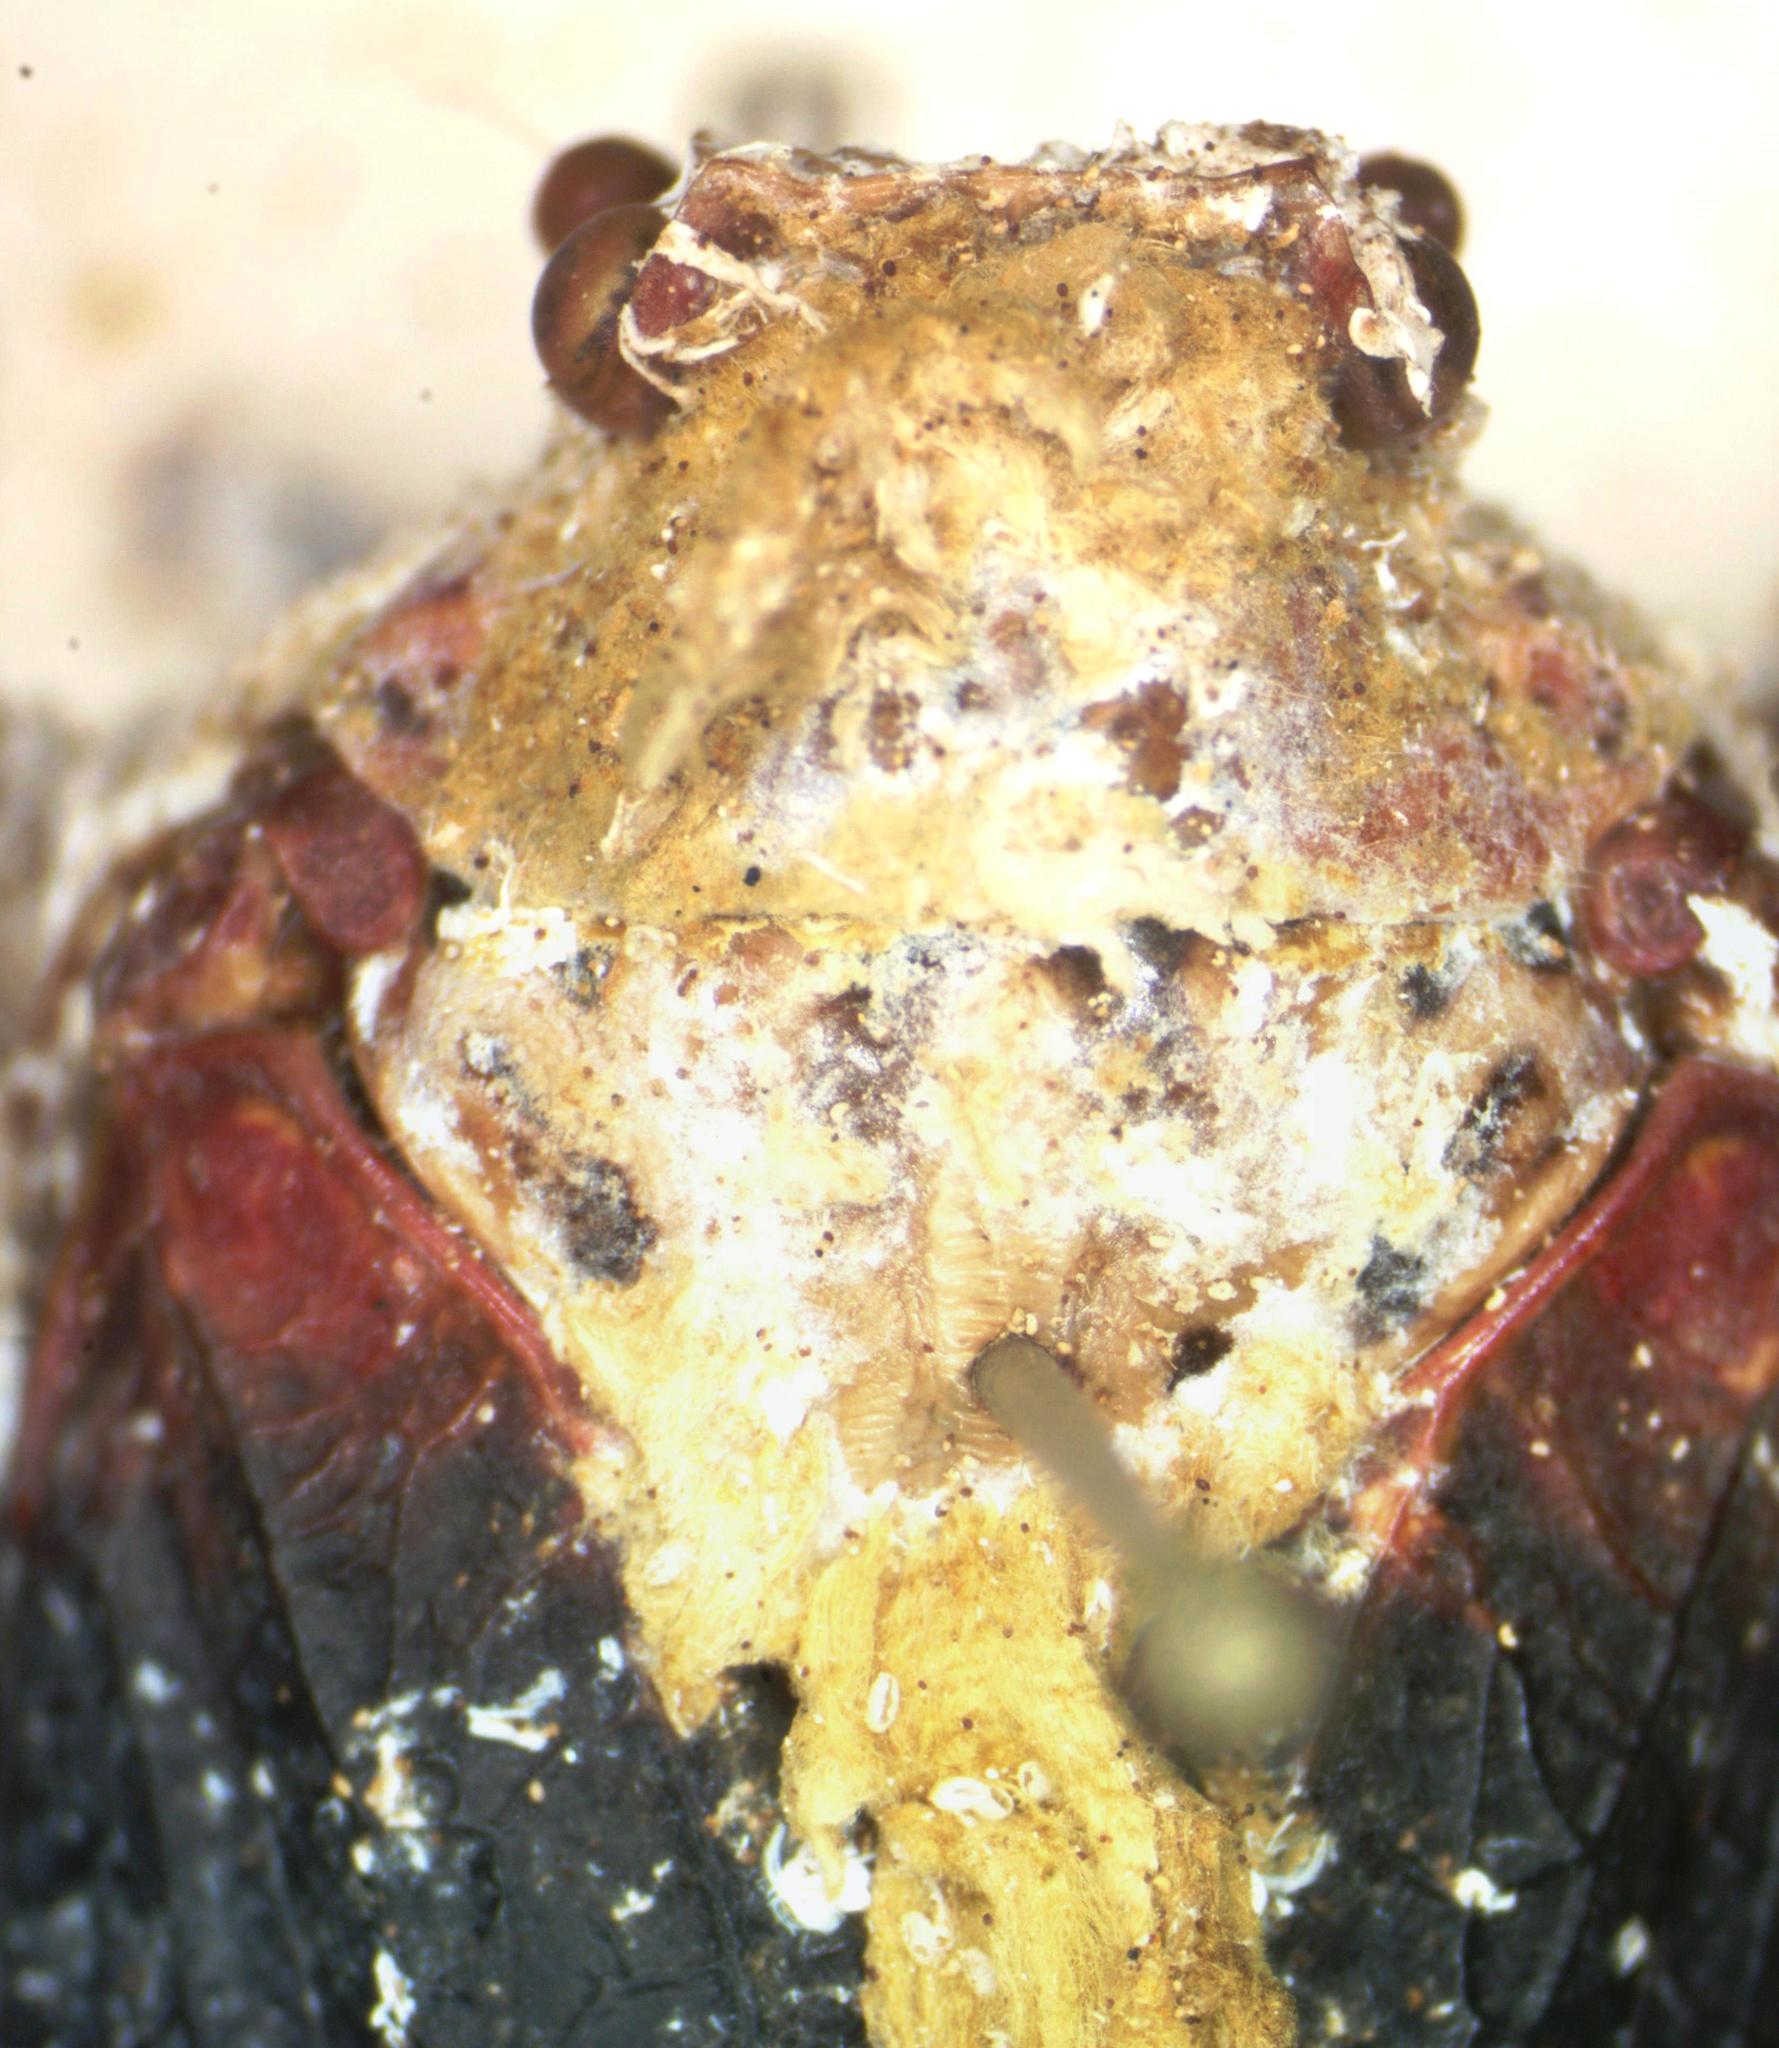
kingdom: Animalia
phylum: Arthropoda
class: Insecta
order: Hemiptera
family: Fulgoridae
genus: Cerogenes
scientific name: Cerogenes auricoma
